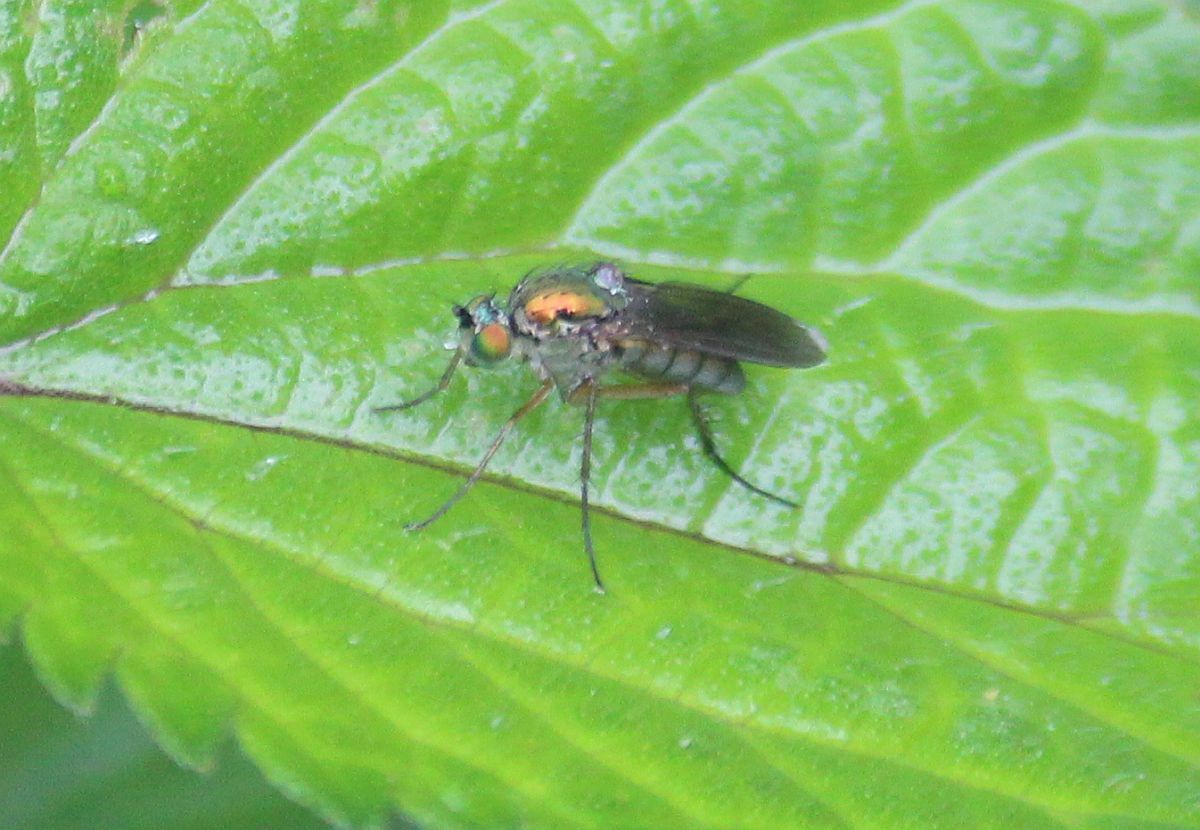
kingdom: Animalia
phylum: Arthropoda
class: Insecta
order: Diptera
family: Dolichopodidae
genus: Poecilobothrus
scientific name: Poecilobothrus nobilitatus
